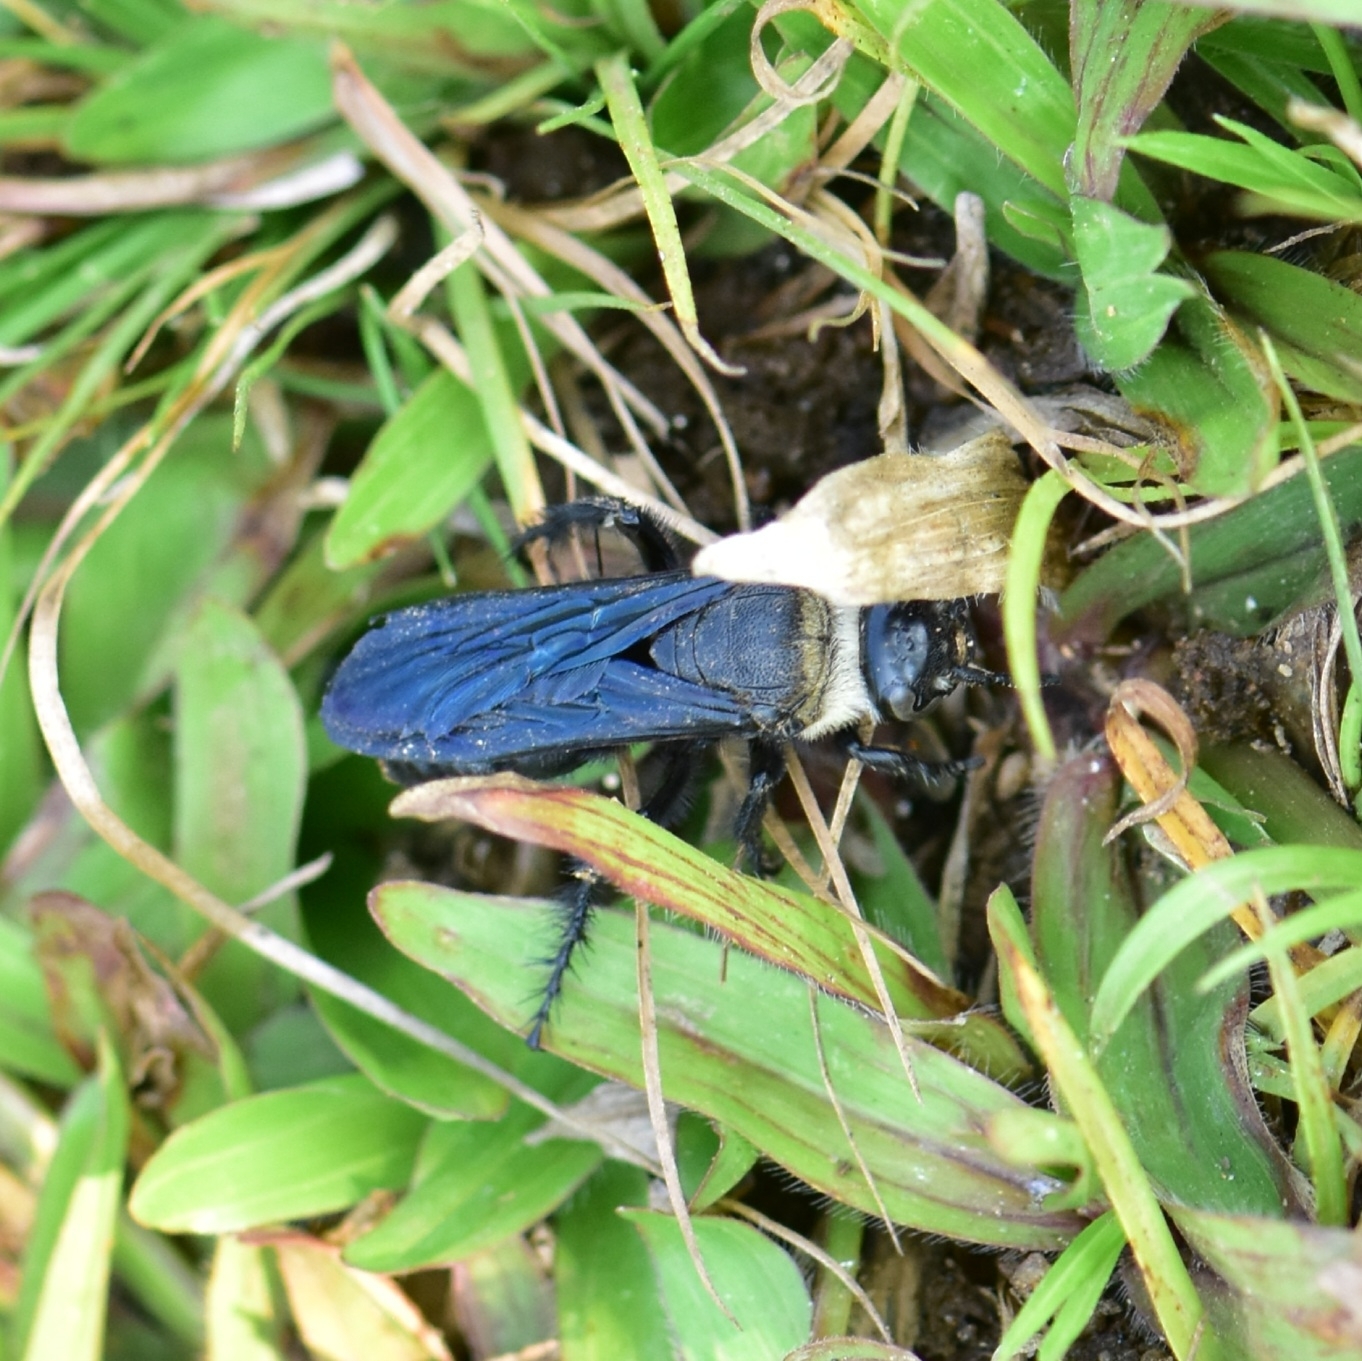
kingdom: Animalia
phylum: Arthropoda
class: Insecta
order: Hymenoptera
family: Scoliidae
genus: Campsomeriella
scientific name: Campsomeriella collaris
